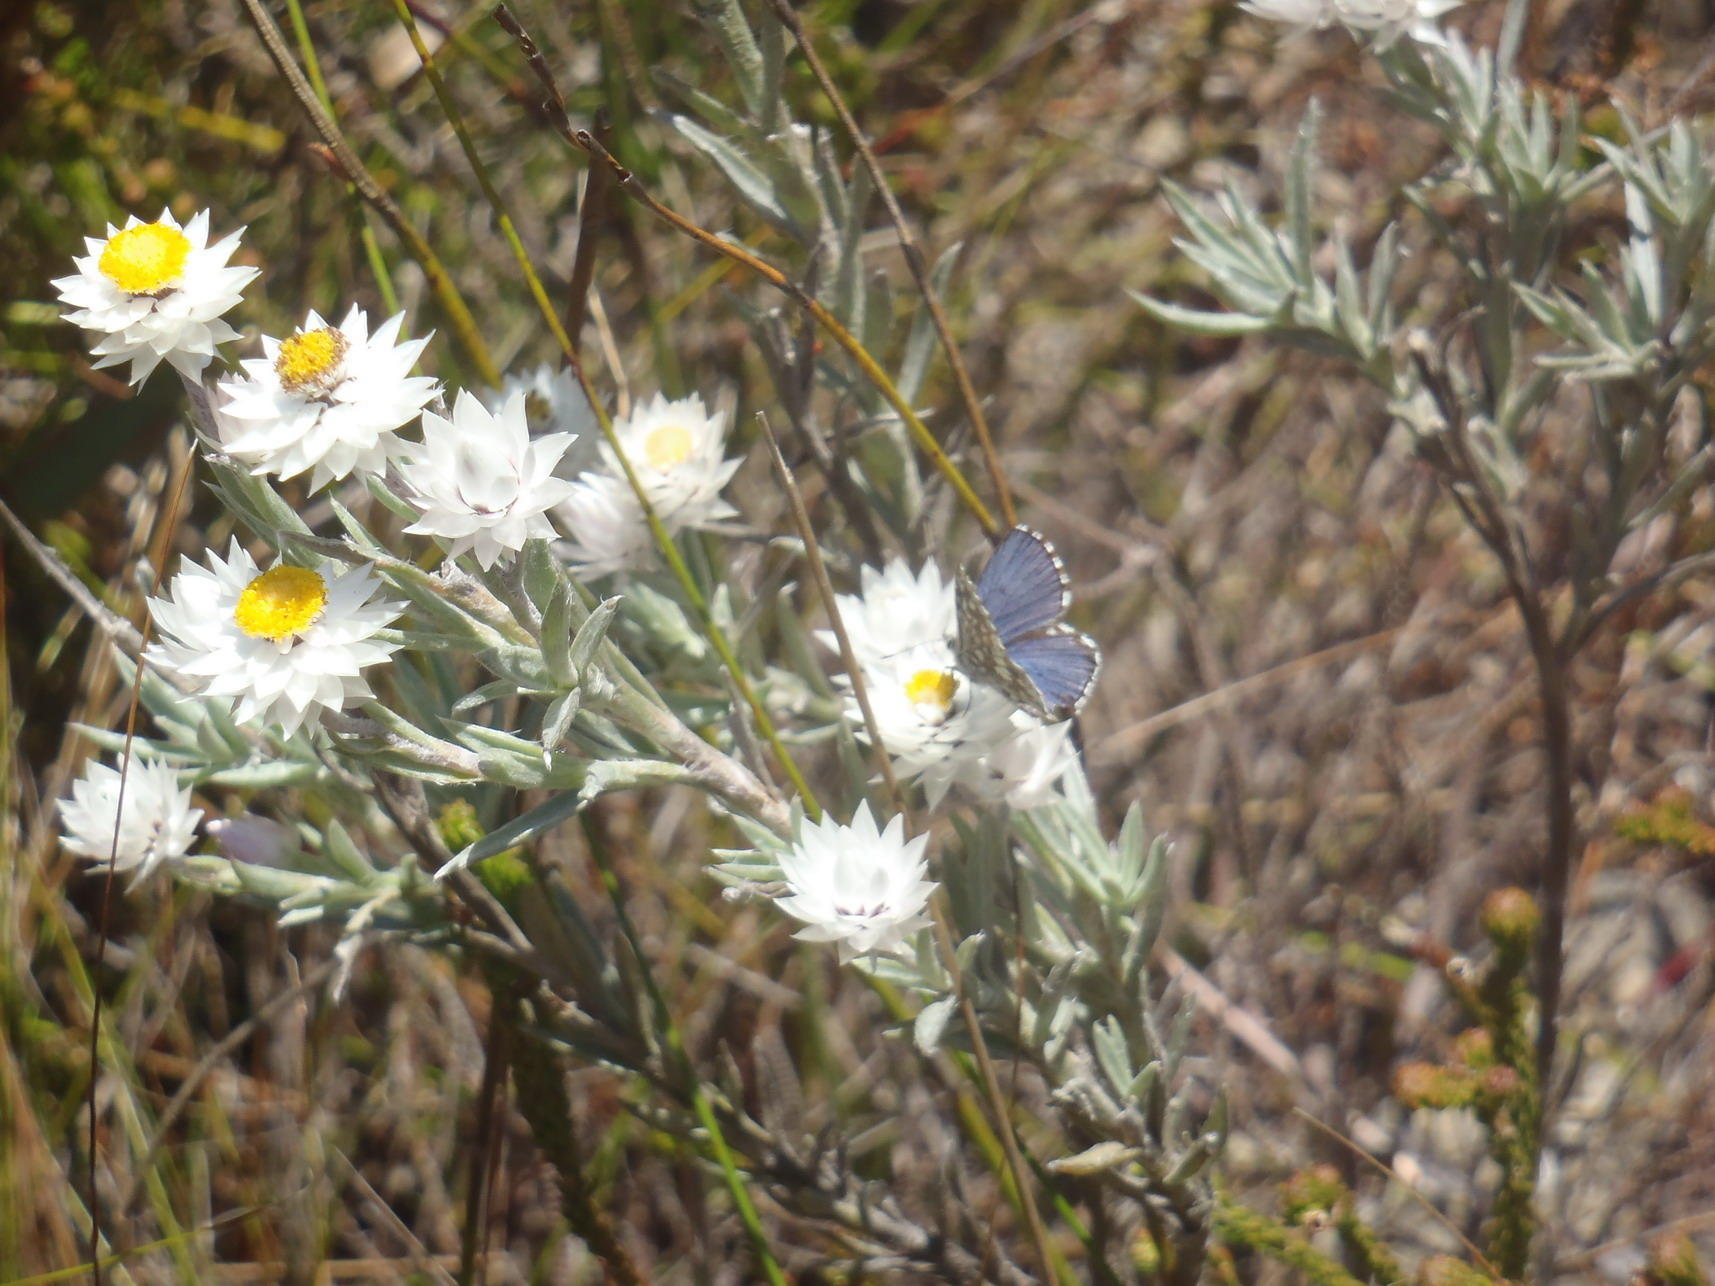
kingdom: Plantae
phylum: Tracheophyta
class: Magnoliopsida
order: Asterales
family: Asteraceae
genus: Achyranthemum
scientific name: Achyranthemum paniculatum
